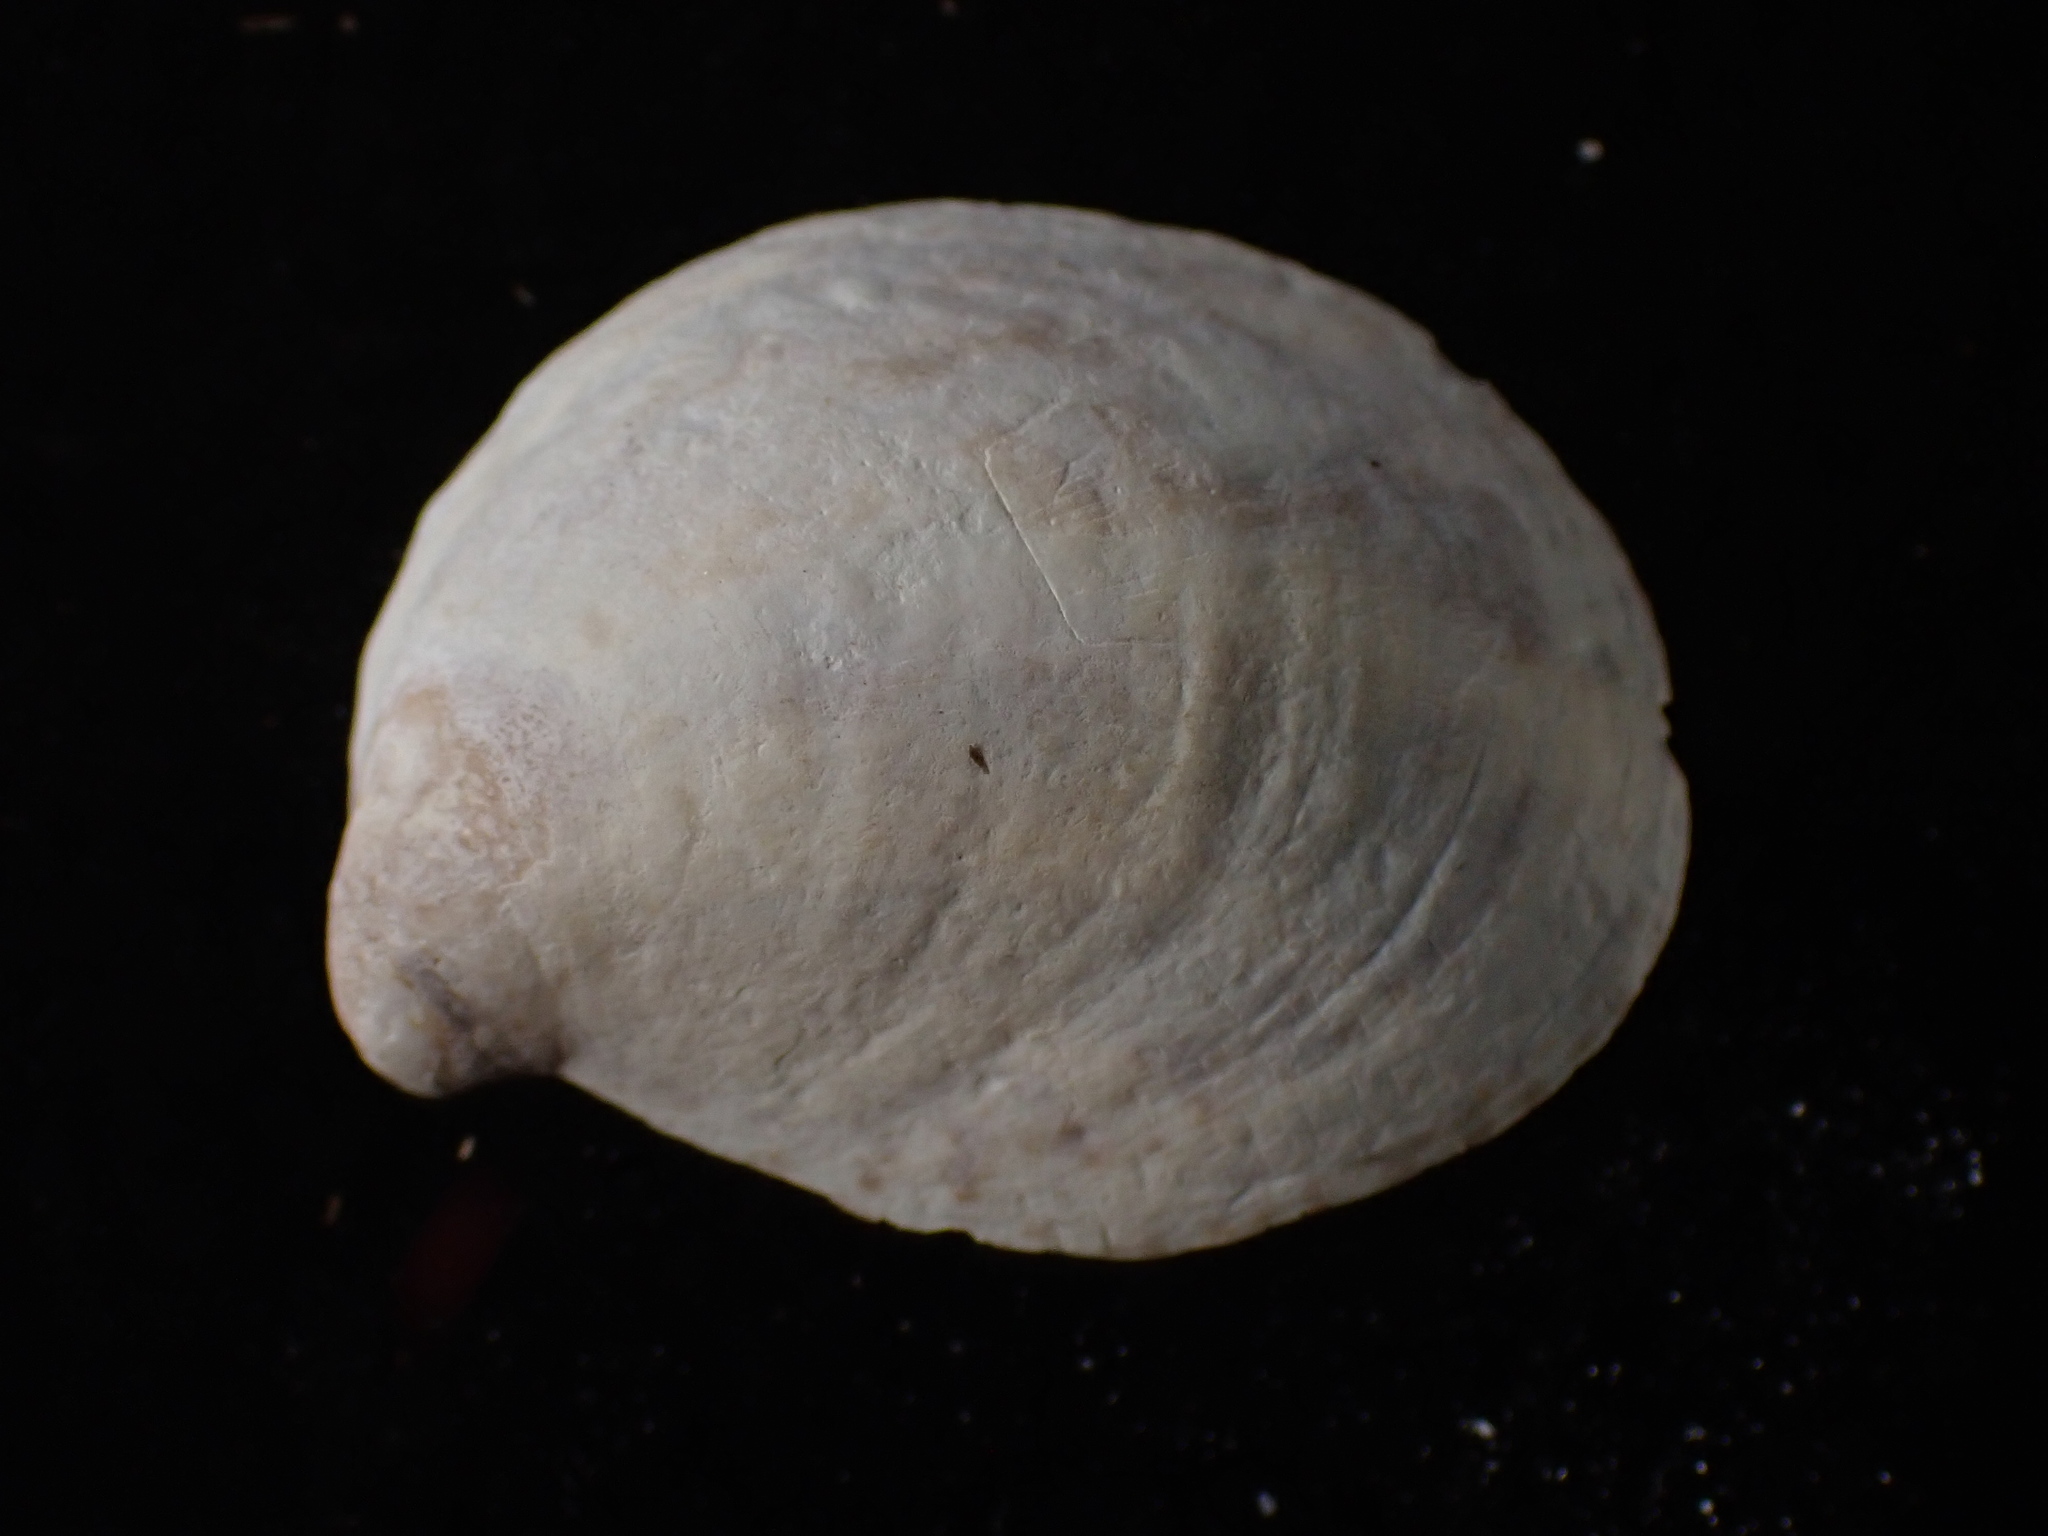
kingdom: Animalia
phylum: Mollusca
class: Gastropoda
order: Littorinimorpha
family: Calyptraeidae
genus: Crepidula
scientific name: Crepidula fornicata
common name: Slipper limpet
